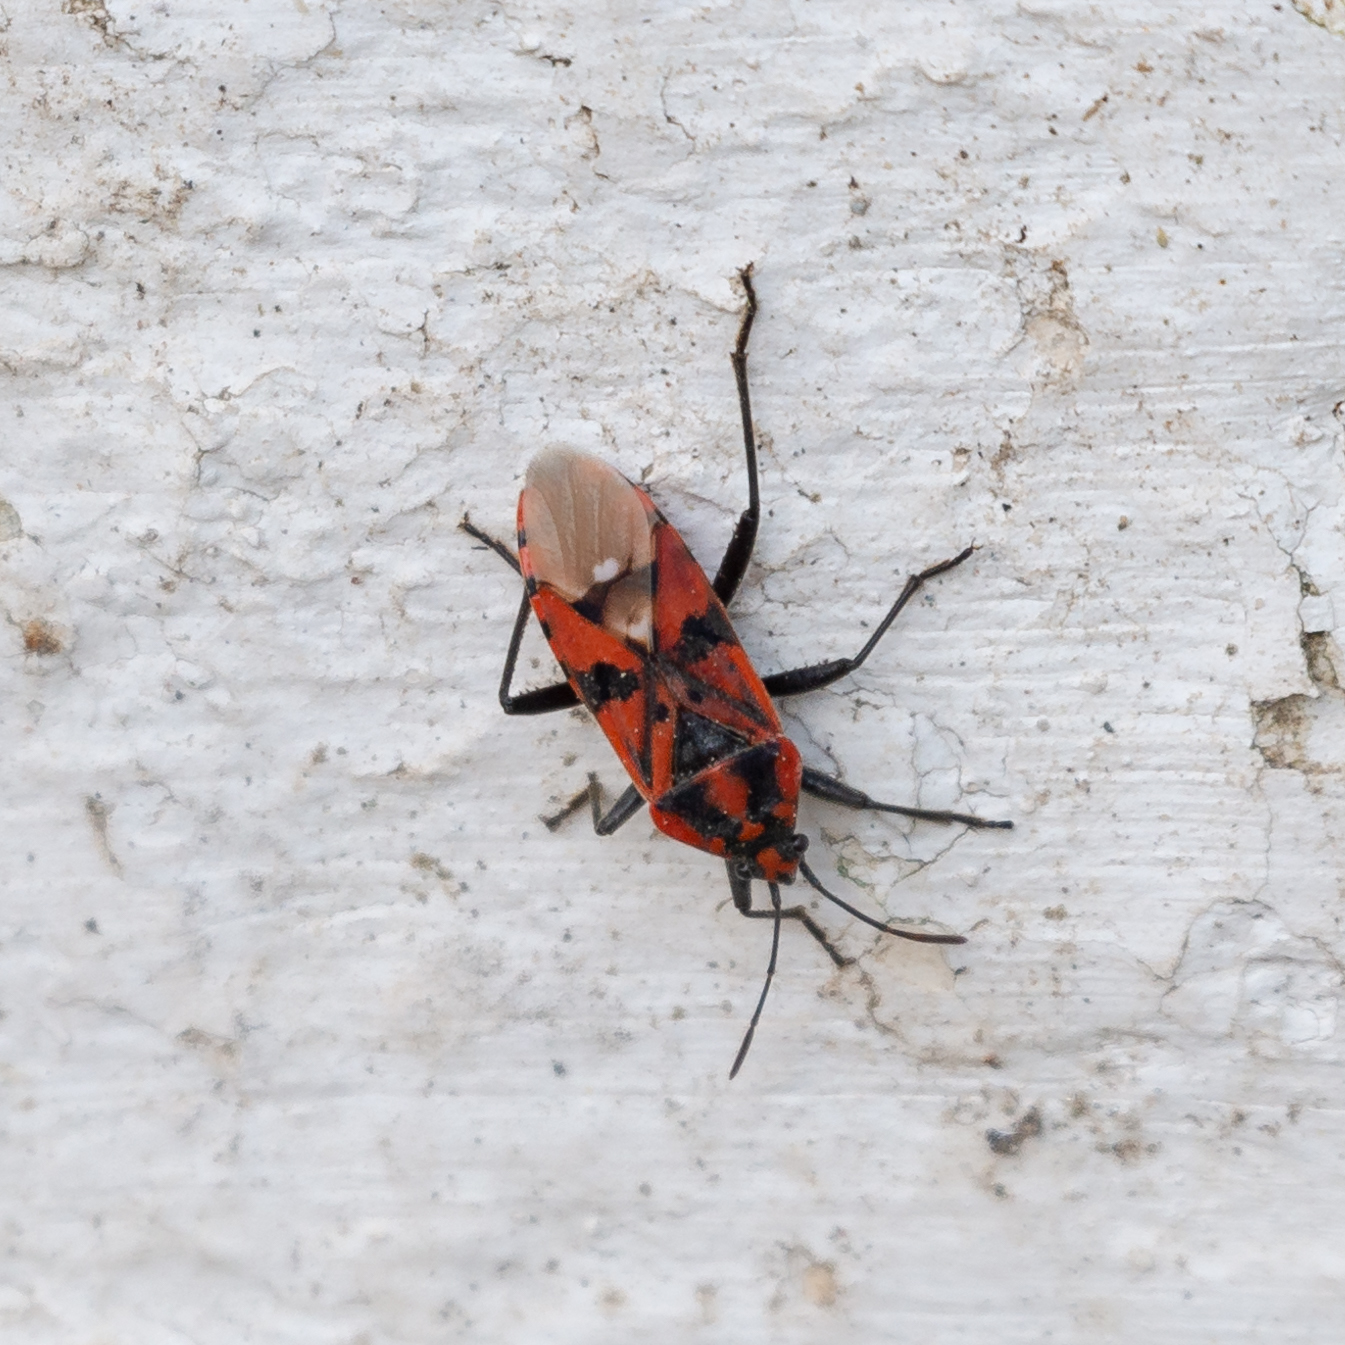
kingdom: Animalia
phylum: Arthropoda
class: Insecta
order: Hemiptera
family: Lygaeidae
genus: Spilostethus
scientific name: Spilostethus pandurus
